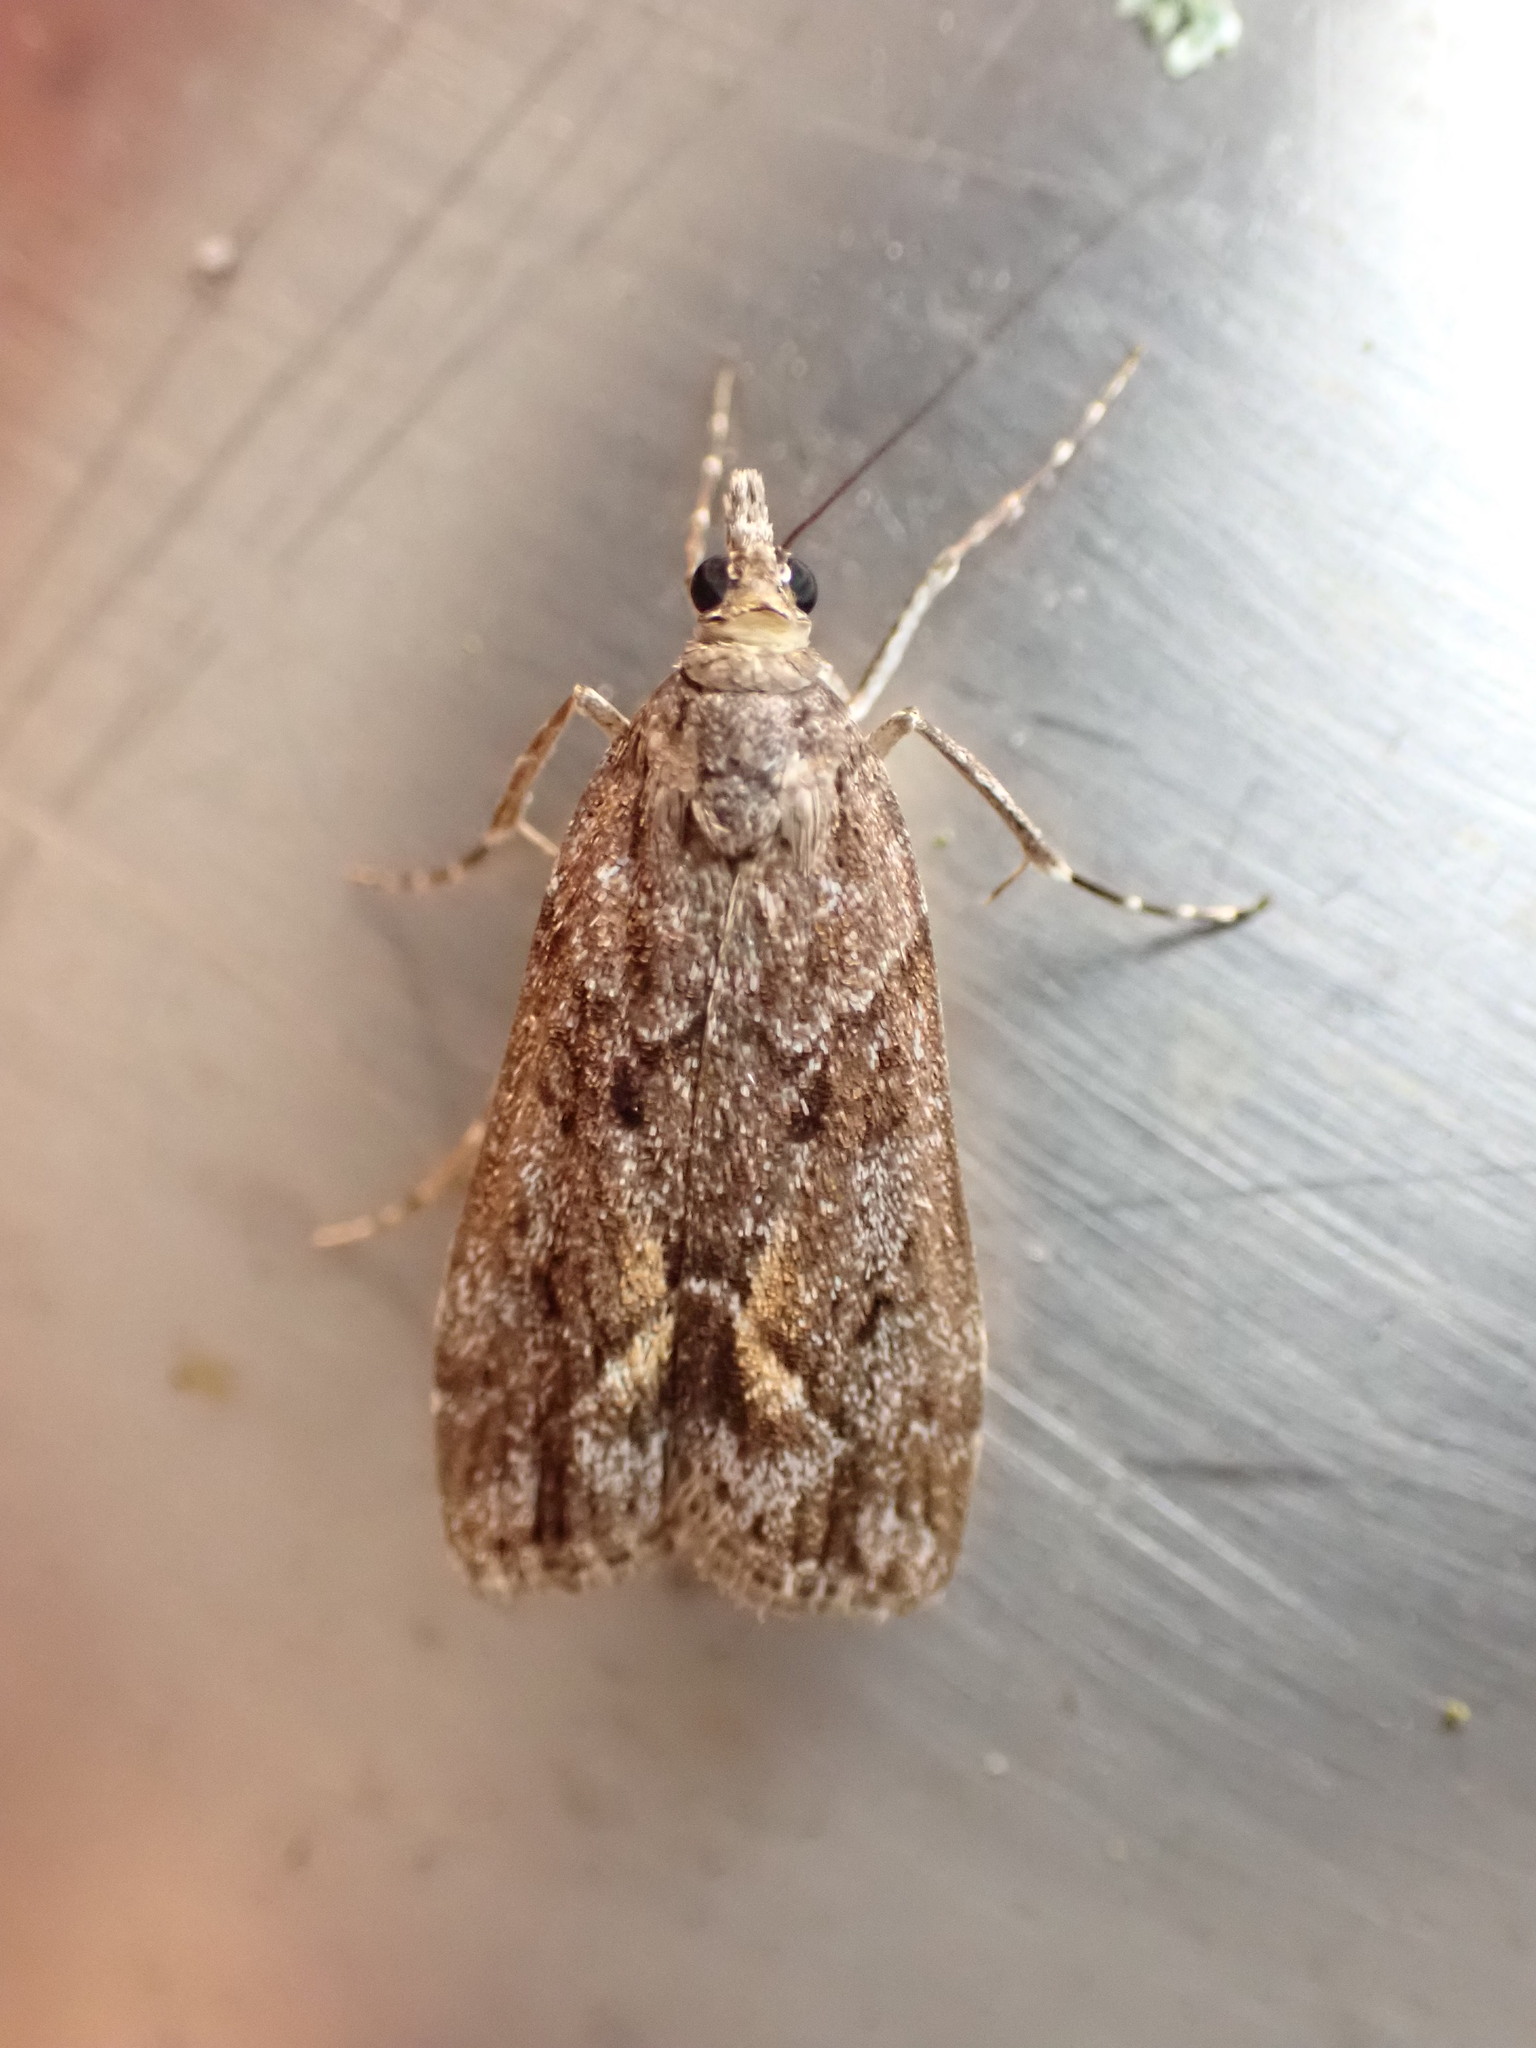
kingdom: Animalia
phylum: Arthropoda
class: Insecta
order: Lepidoptera
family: Crambidae
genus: Eudonia
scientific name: Eudonia submarginalis
